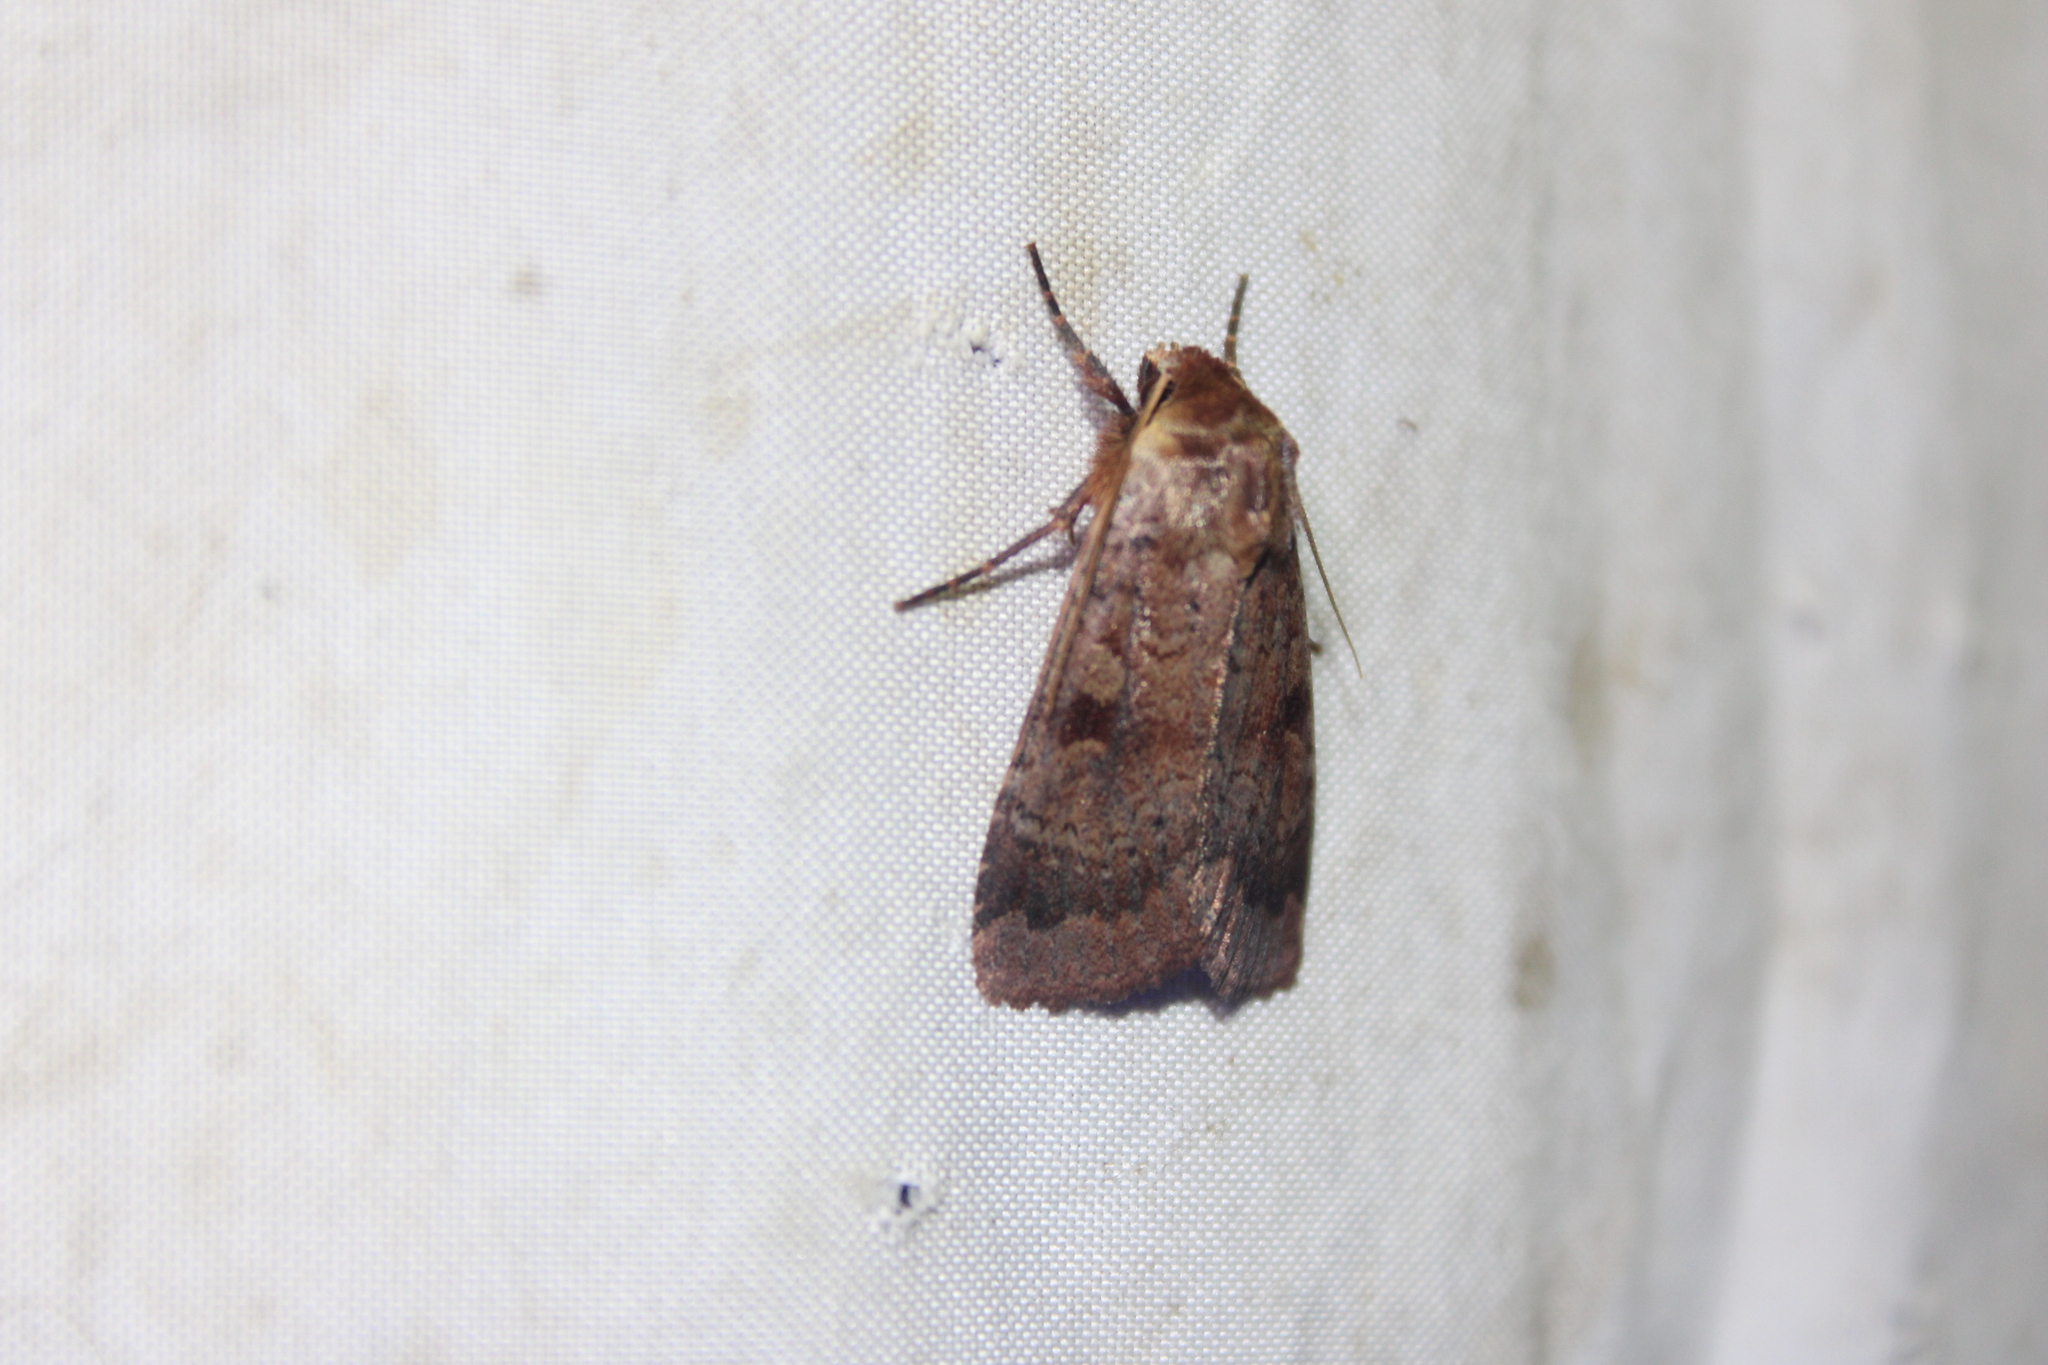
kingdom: Animalia
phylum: Arthropoda
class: Insecta
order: Lepidoptera
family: Noctuidae
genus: Lycophotia
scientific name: Lycophotia phyllophora
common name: Lycophotia moth
